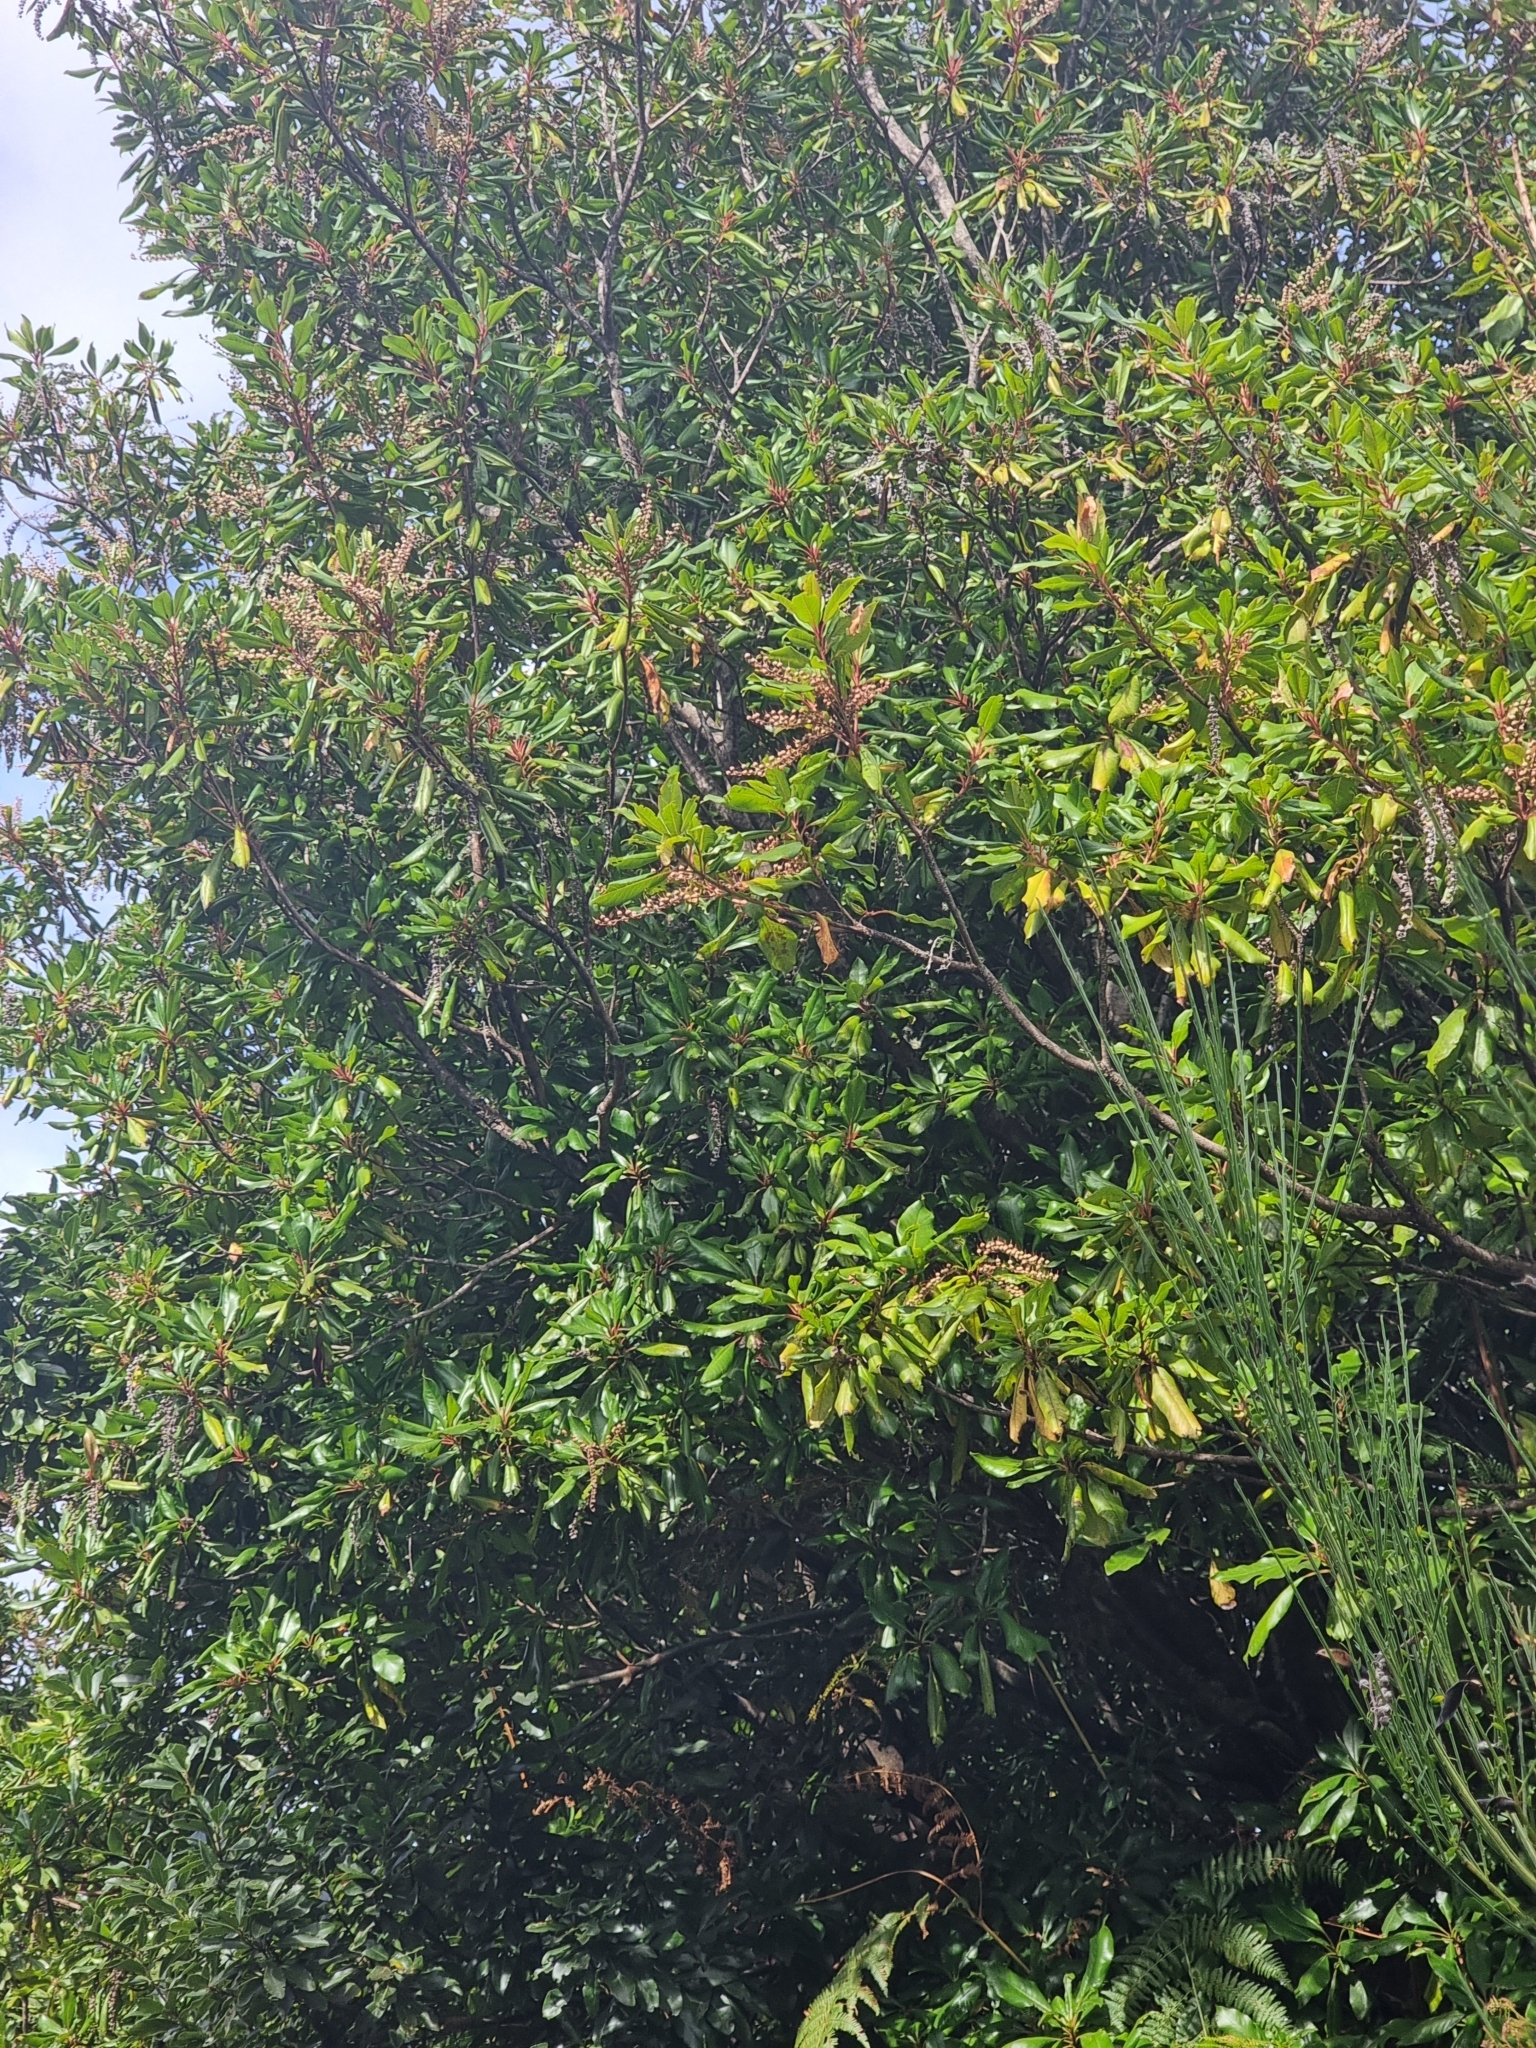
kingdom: Plantae
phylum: Tracheophyta
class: Magnoliopsida
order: Ericales
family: Clethraceae
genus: Clethra
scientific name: Clethra arborea
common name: Lily-of-the-valley-tree
